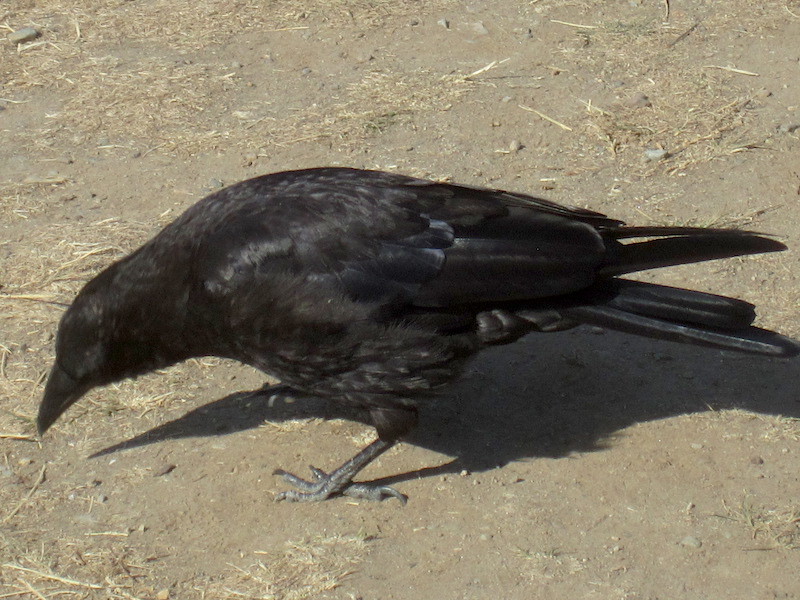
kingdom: Animalia
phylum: Chordata
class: Aves
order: Passeriformes
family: Corvidae
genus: Corvus
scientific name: Corvus brachyrhynchos
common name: American crow
